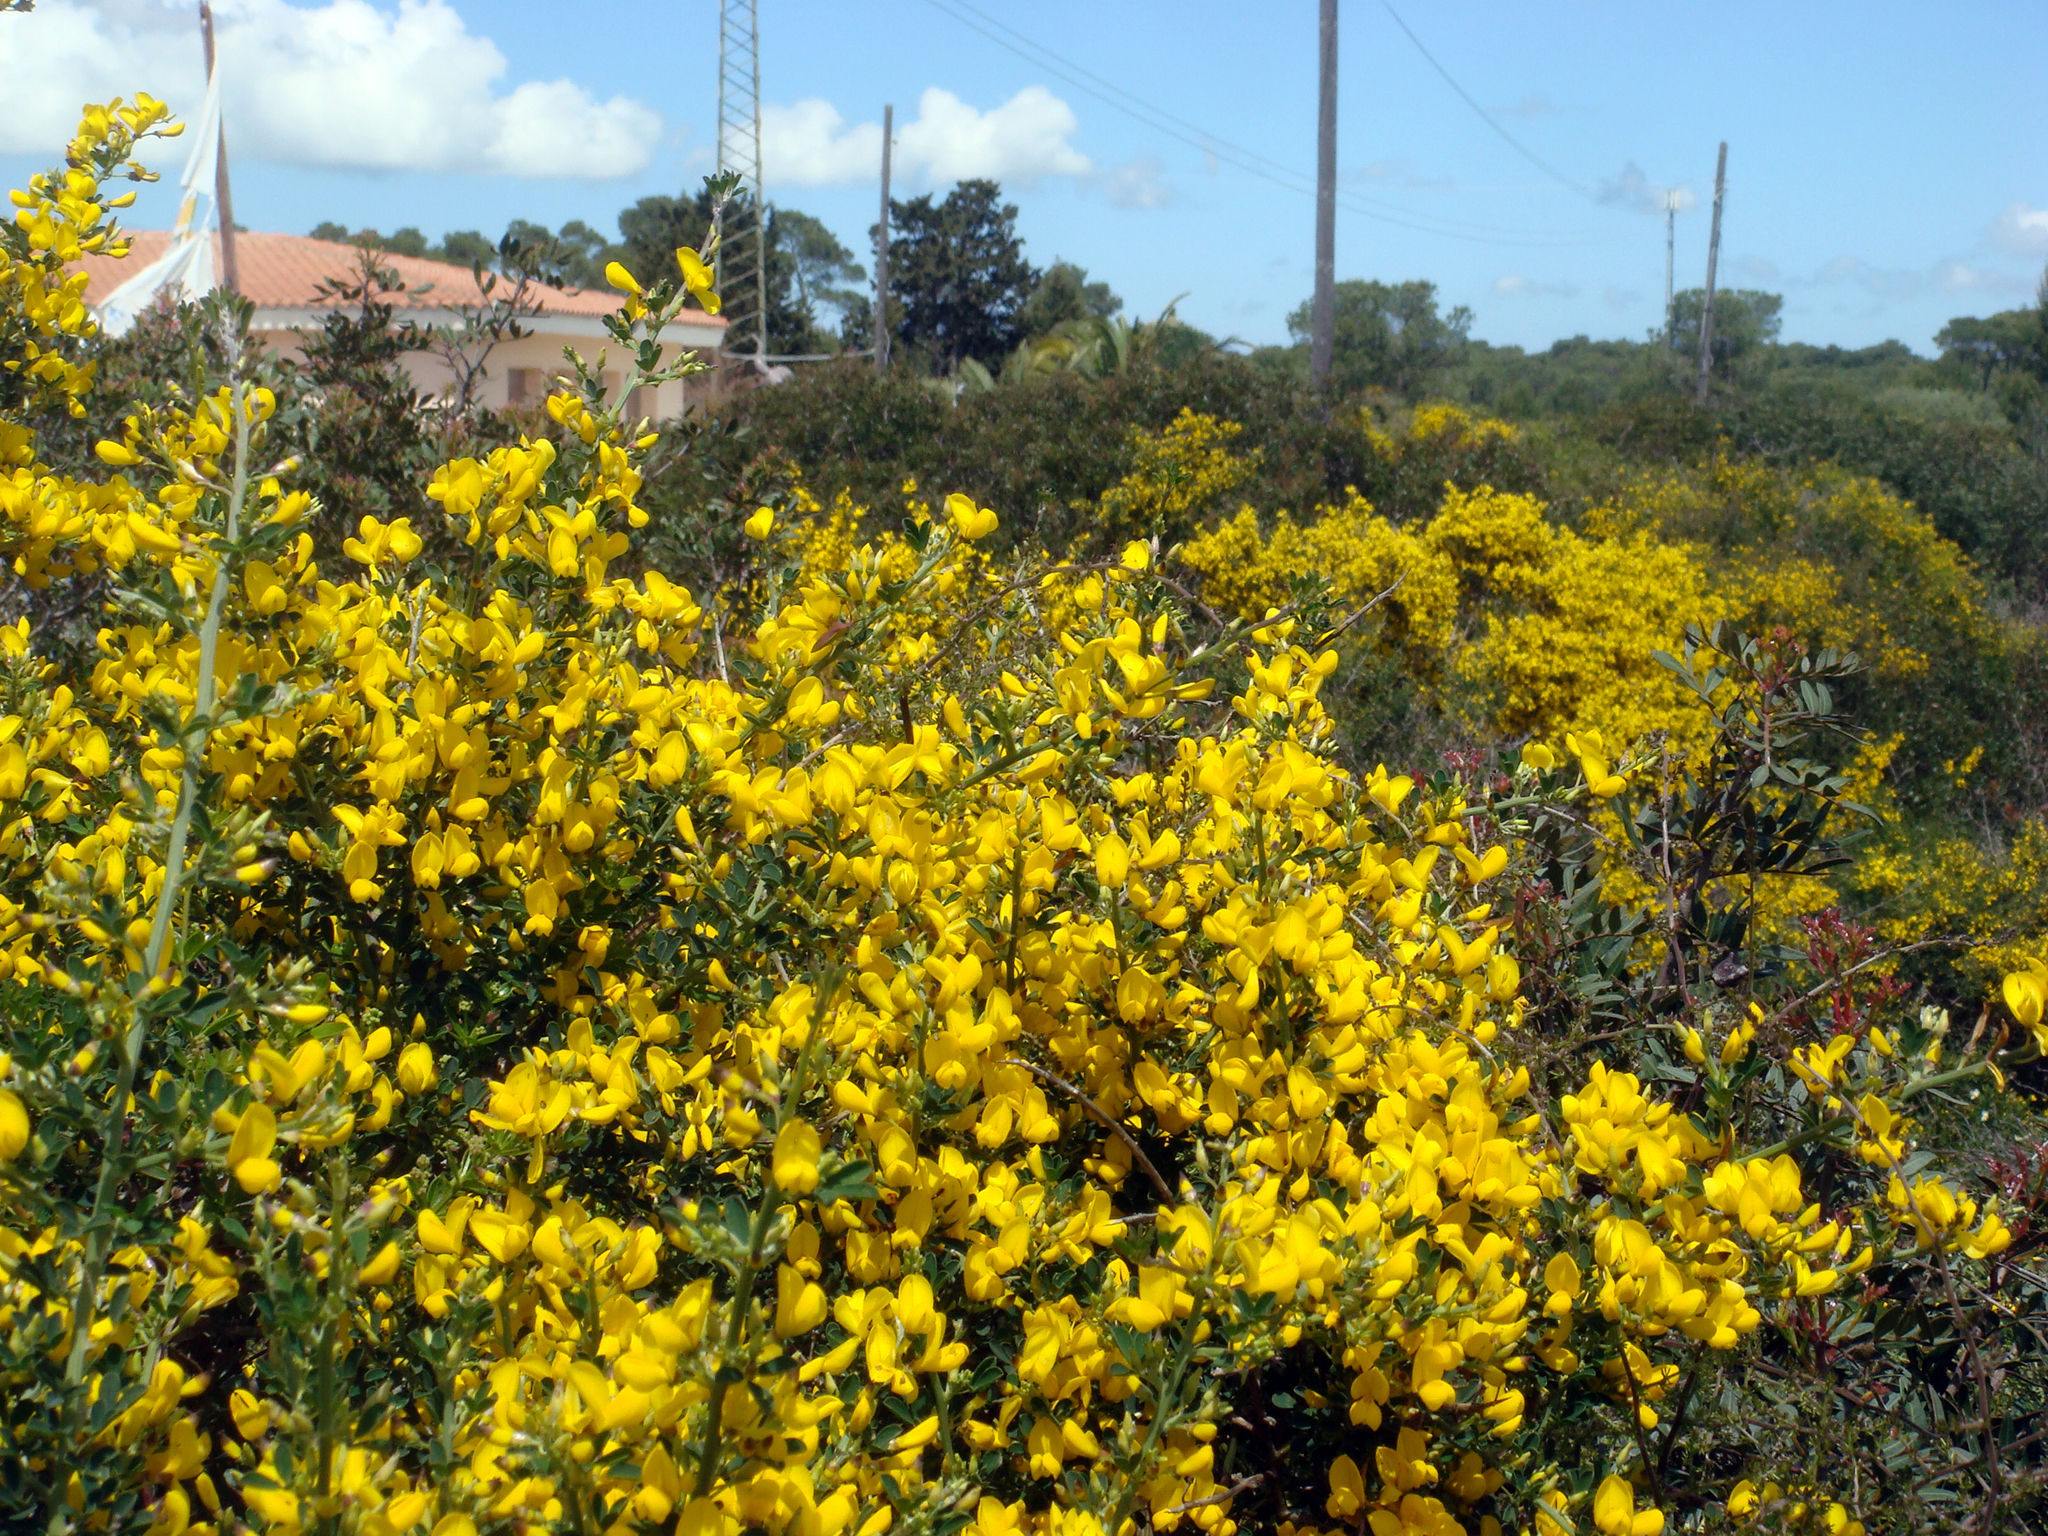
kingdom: Plantae
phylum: Tracheophyta
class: Magnoliopsida
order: Fabales
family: Fabaceae
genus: Calicotome
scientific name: Calicotome villosa
